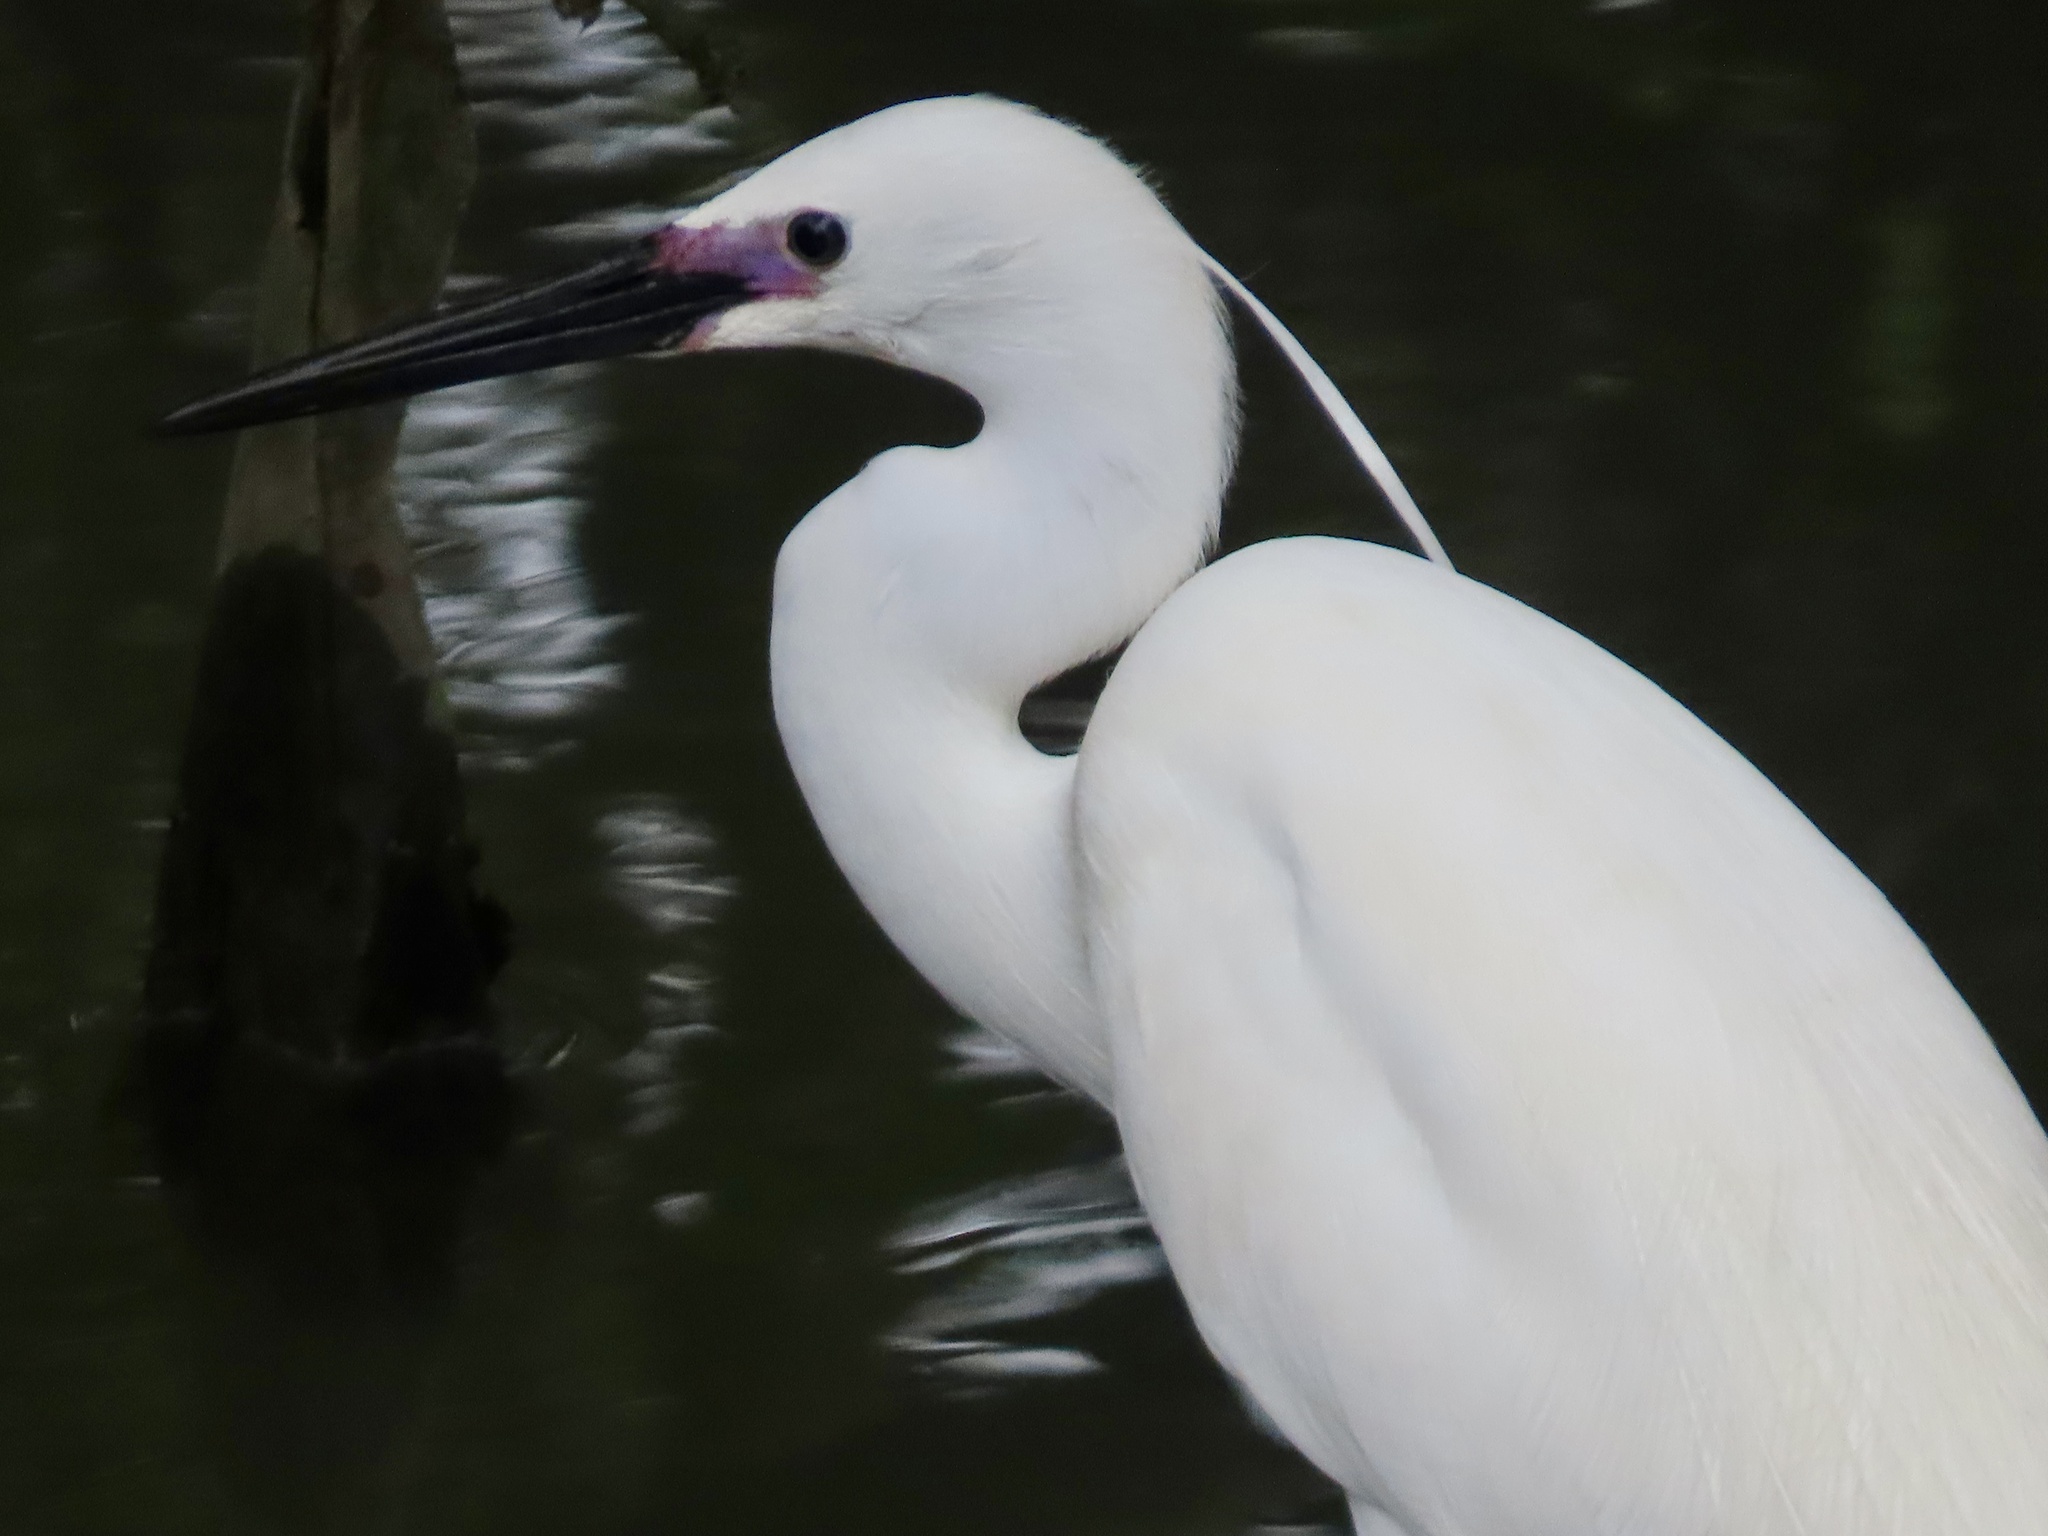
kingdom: Animalia
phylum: Chordata
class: Aves
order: Pelecaniformes
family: Ardeidae
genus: Egretta
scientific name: Egretta garzetta
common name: Little egret
